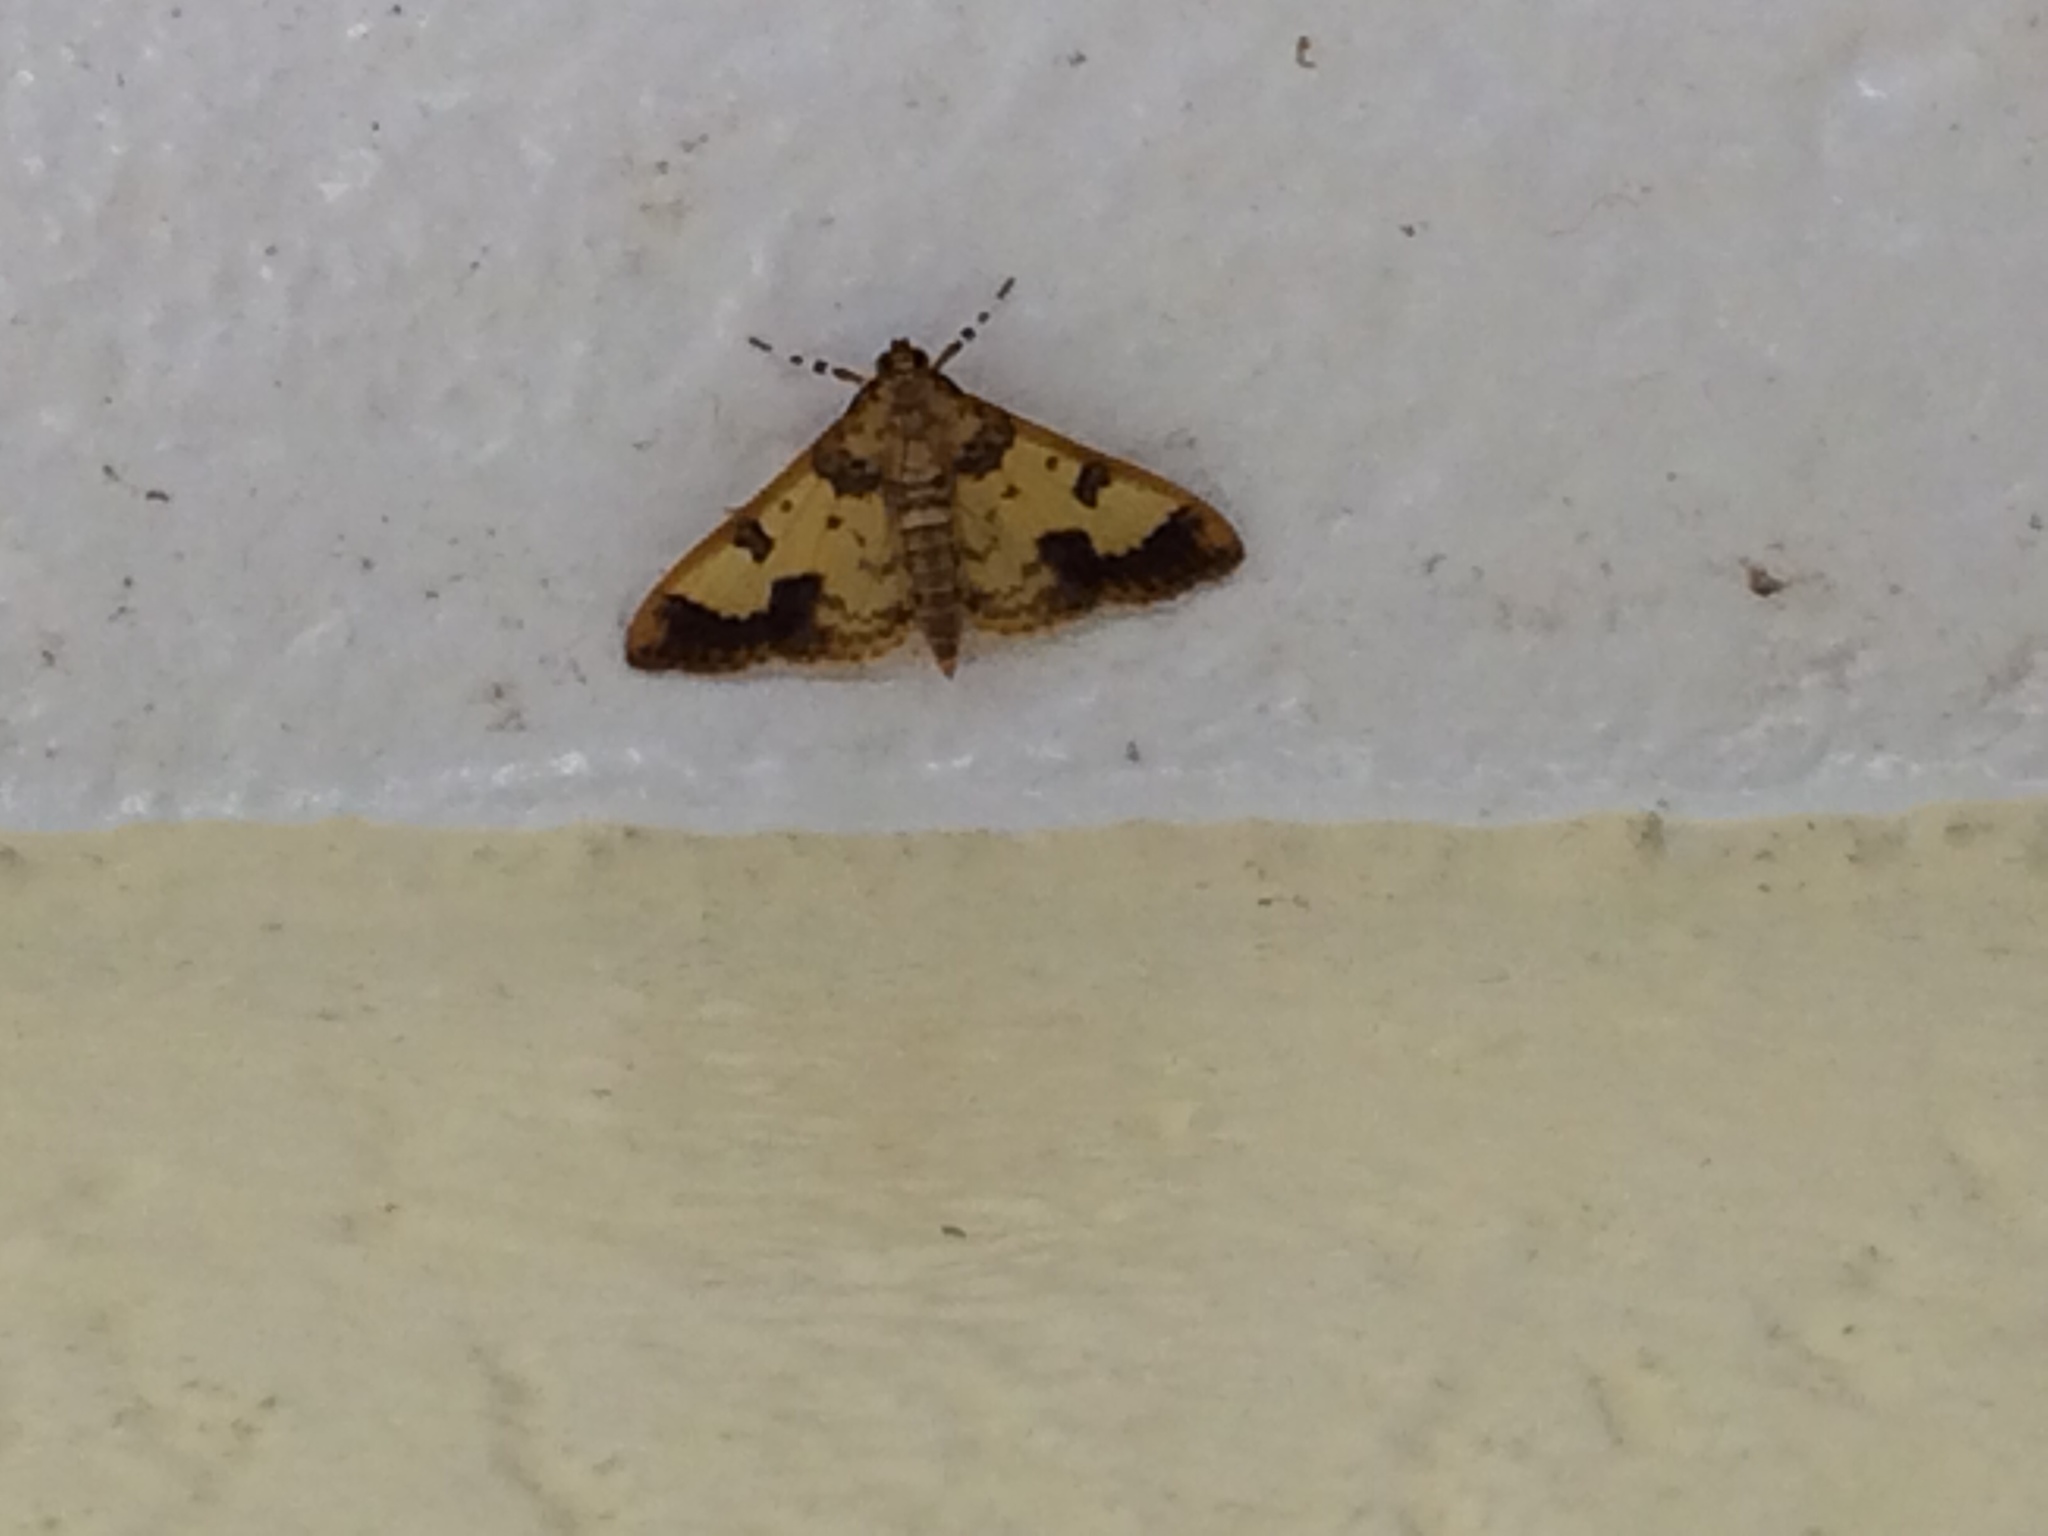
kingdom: Animalia
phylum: Arthropoda
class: Insecta
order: Lepidoptera
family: Crambidae
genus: Syllepte
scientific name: Syllepte pactolalis
